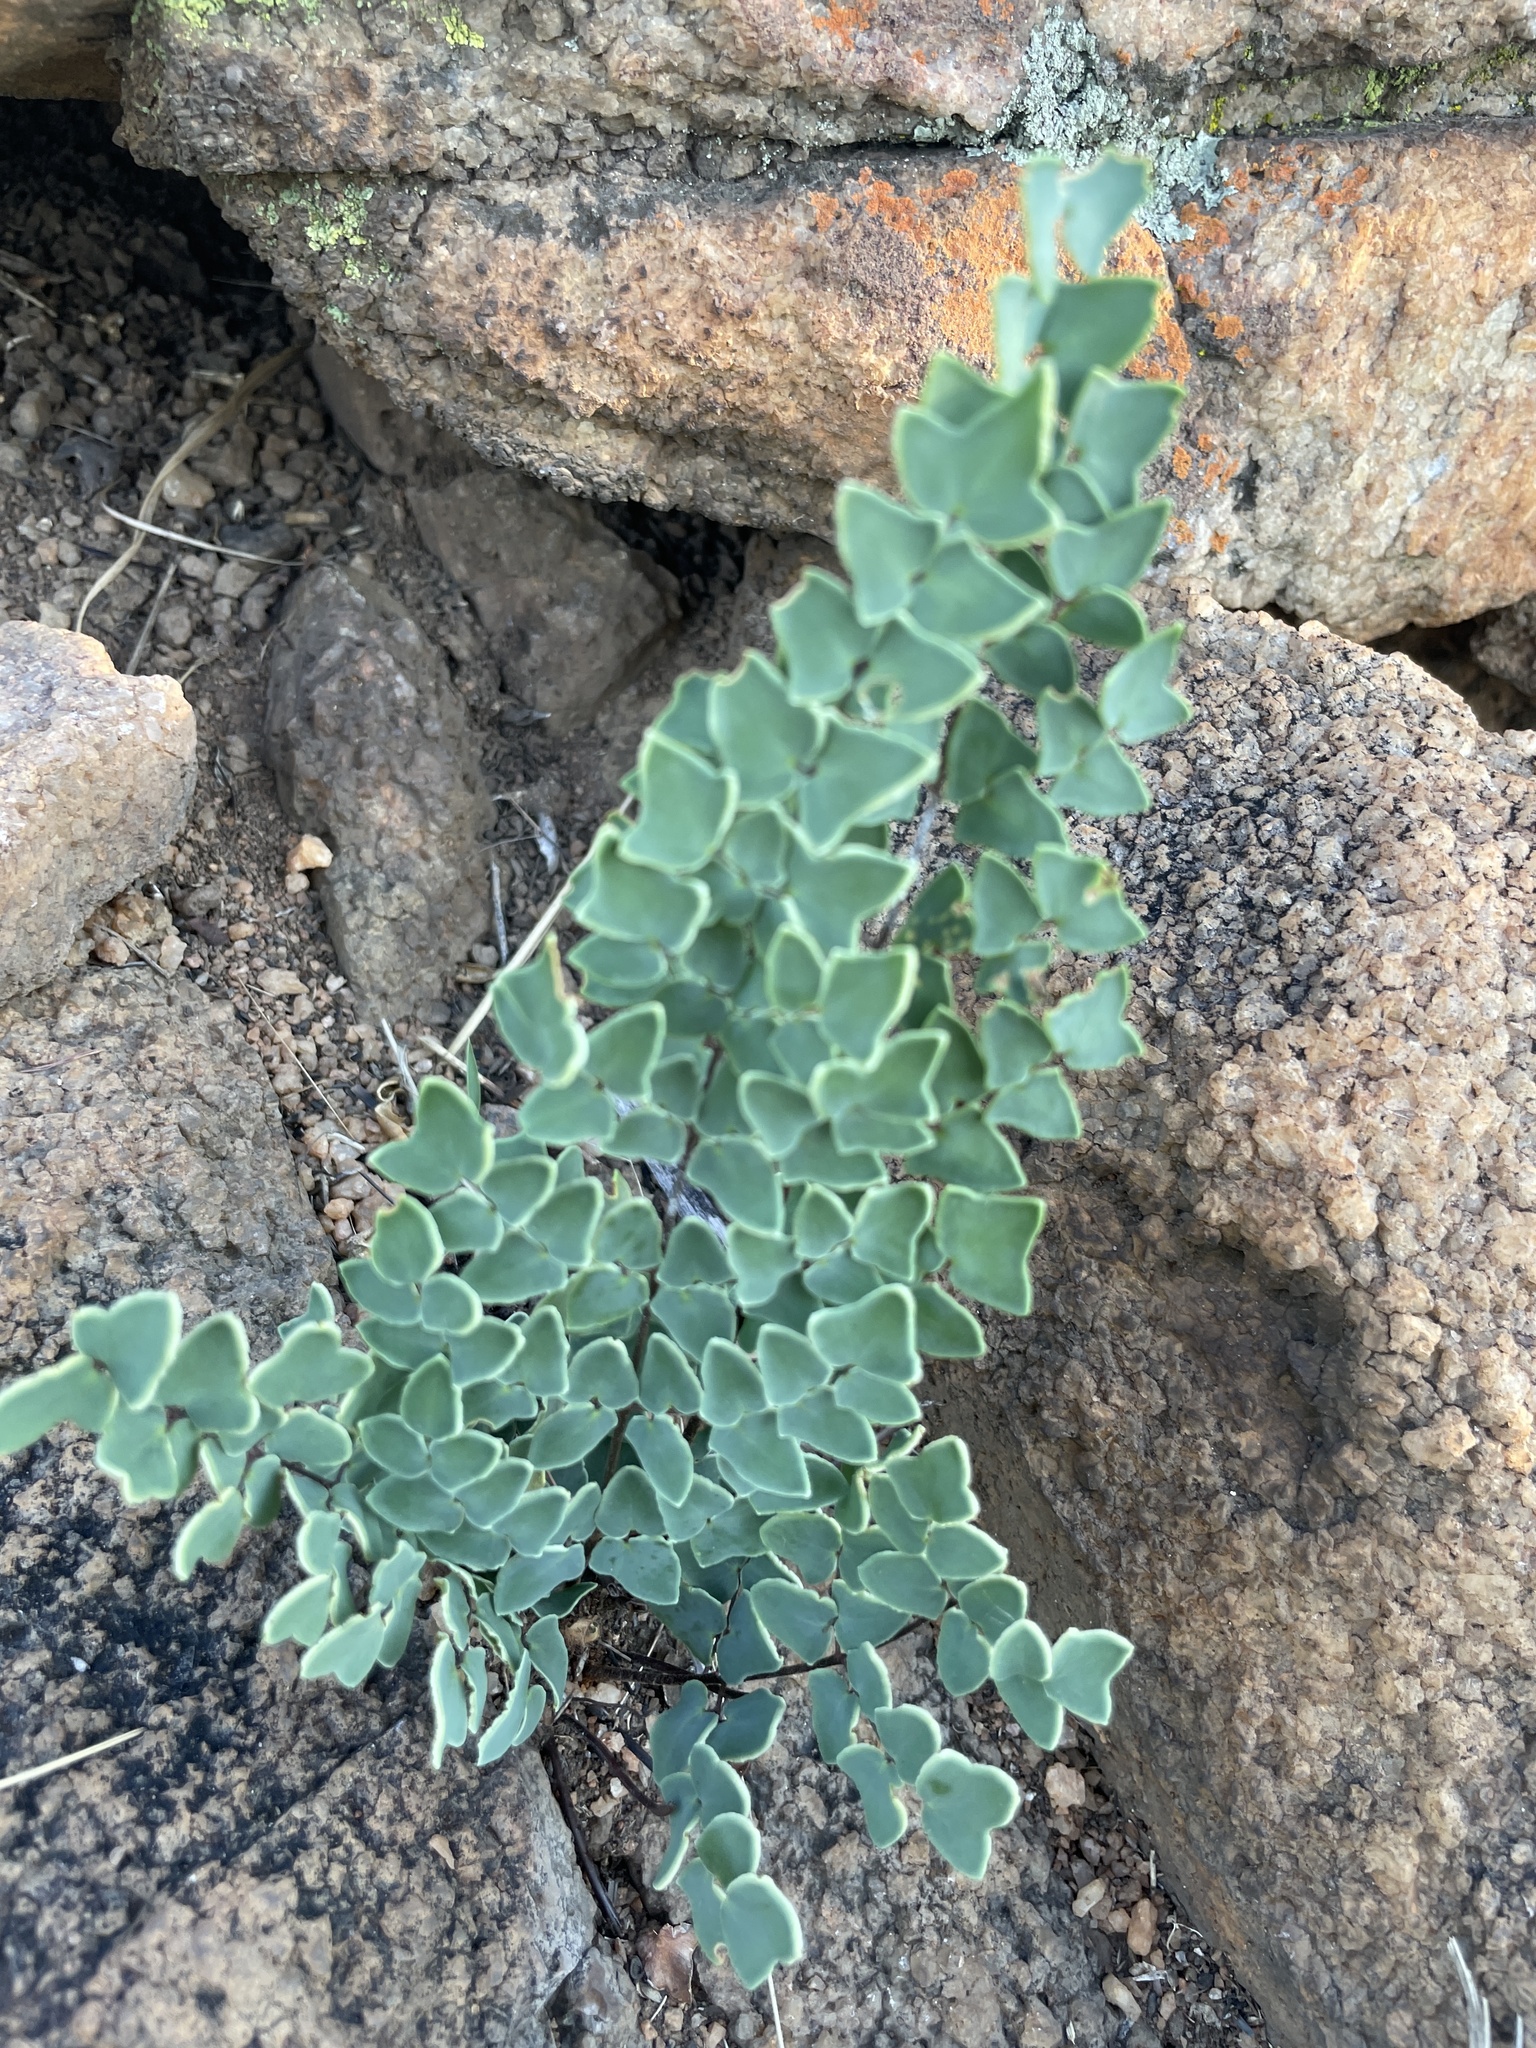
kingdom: Plantae
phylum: Tracheophyta
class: Polypodiopsida
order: Polypodiales
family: Pteridaceae
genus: Pellaea
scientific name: Pellaea calomelanos
